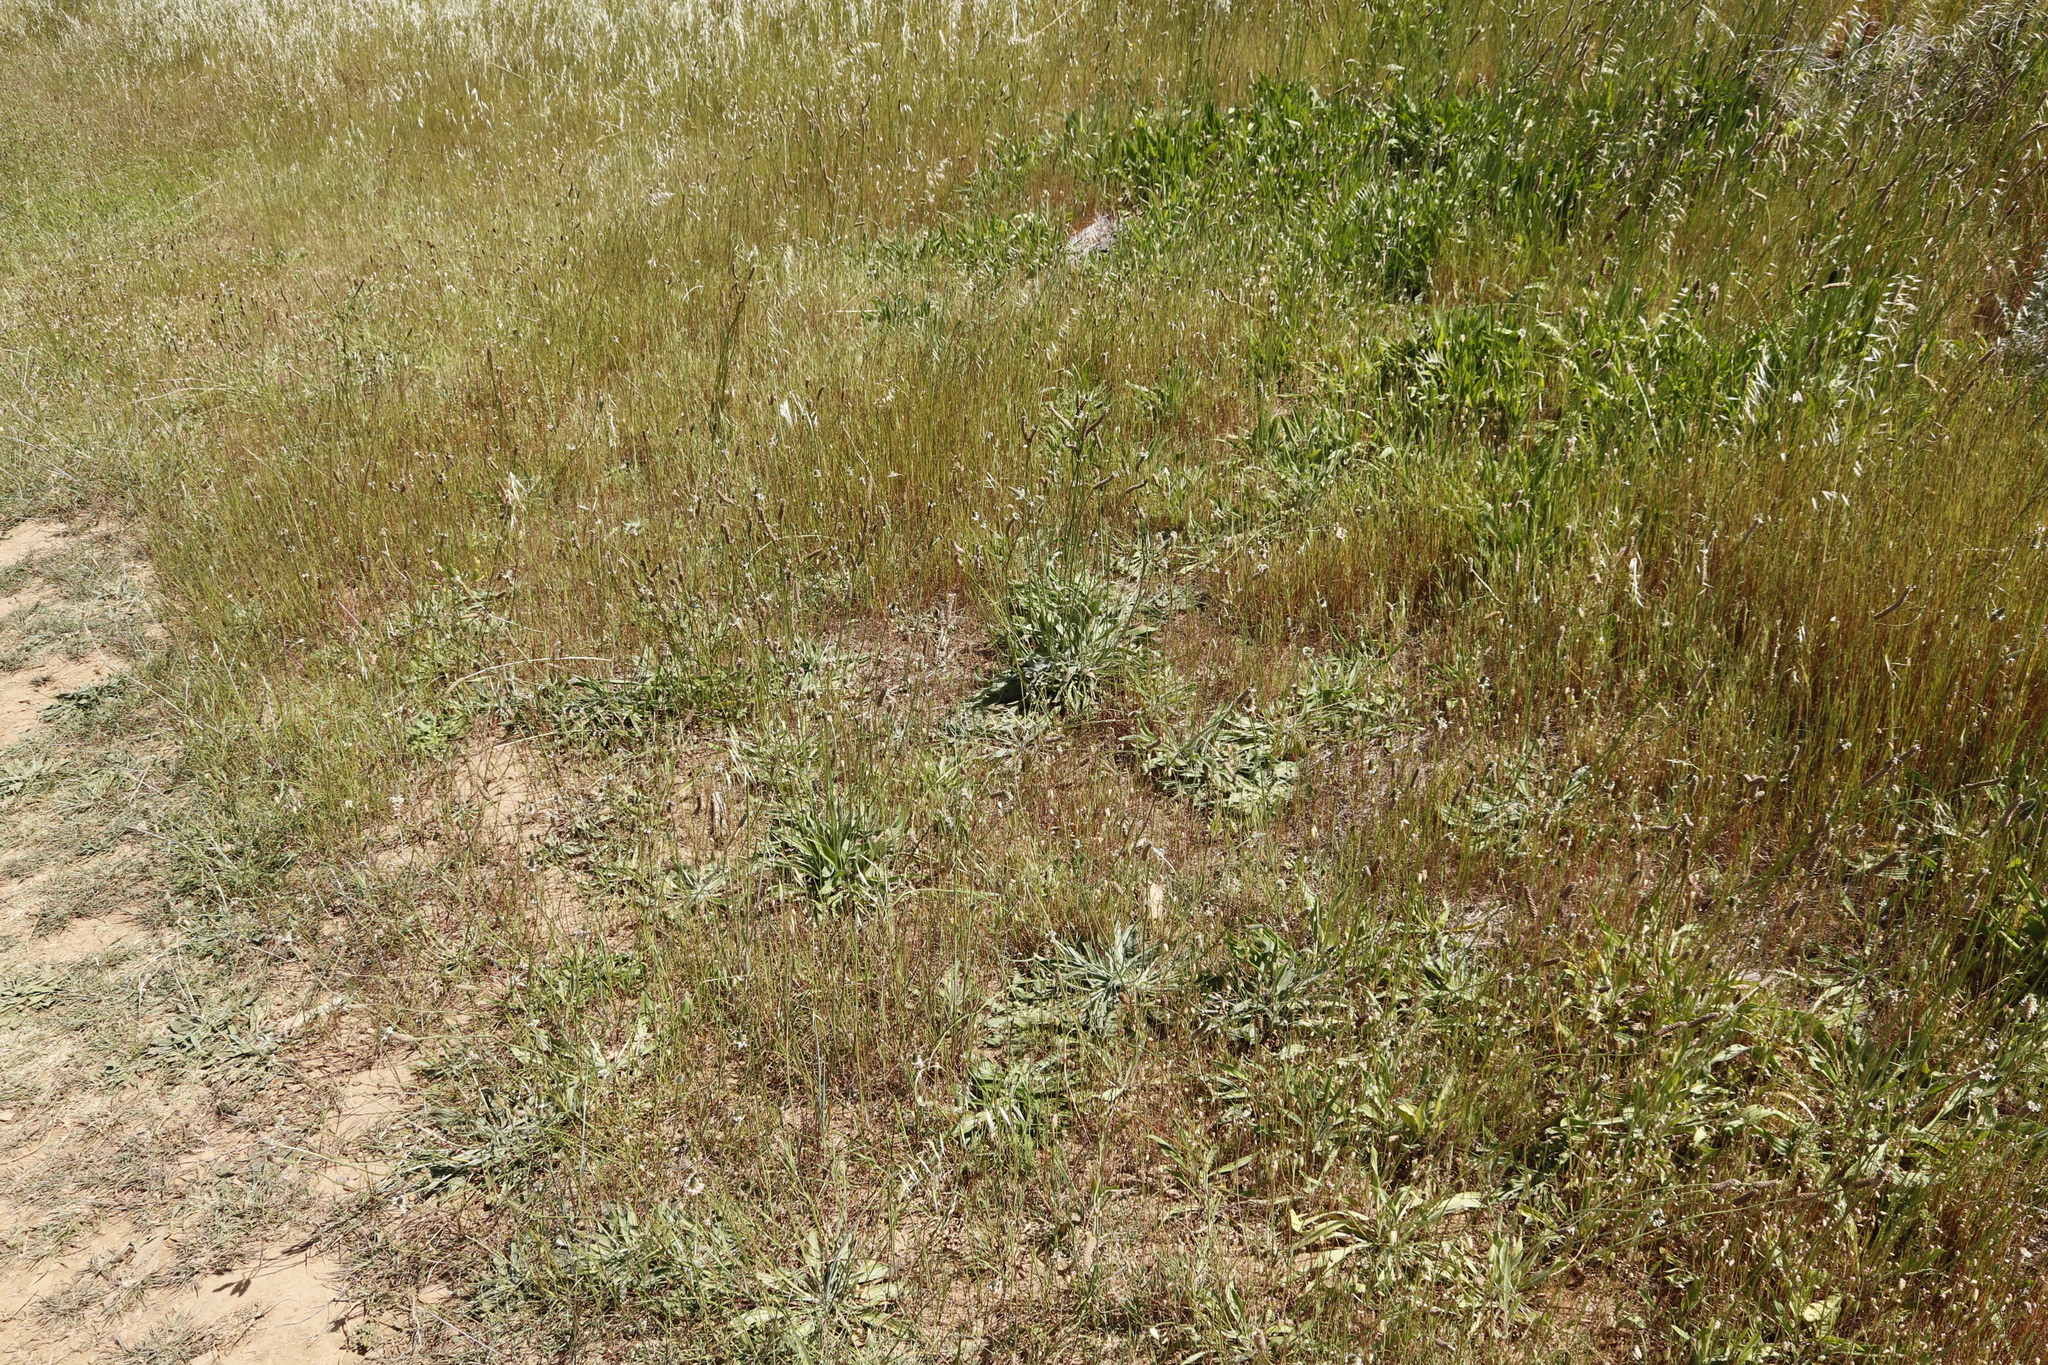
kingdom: Plantae
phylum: Tracheophyta
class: Magnoliopsida
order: Lamiales
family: Plantaginaceae
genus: Plantago
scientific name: Plantago lanceolata
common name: Ribwort plantain
